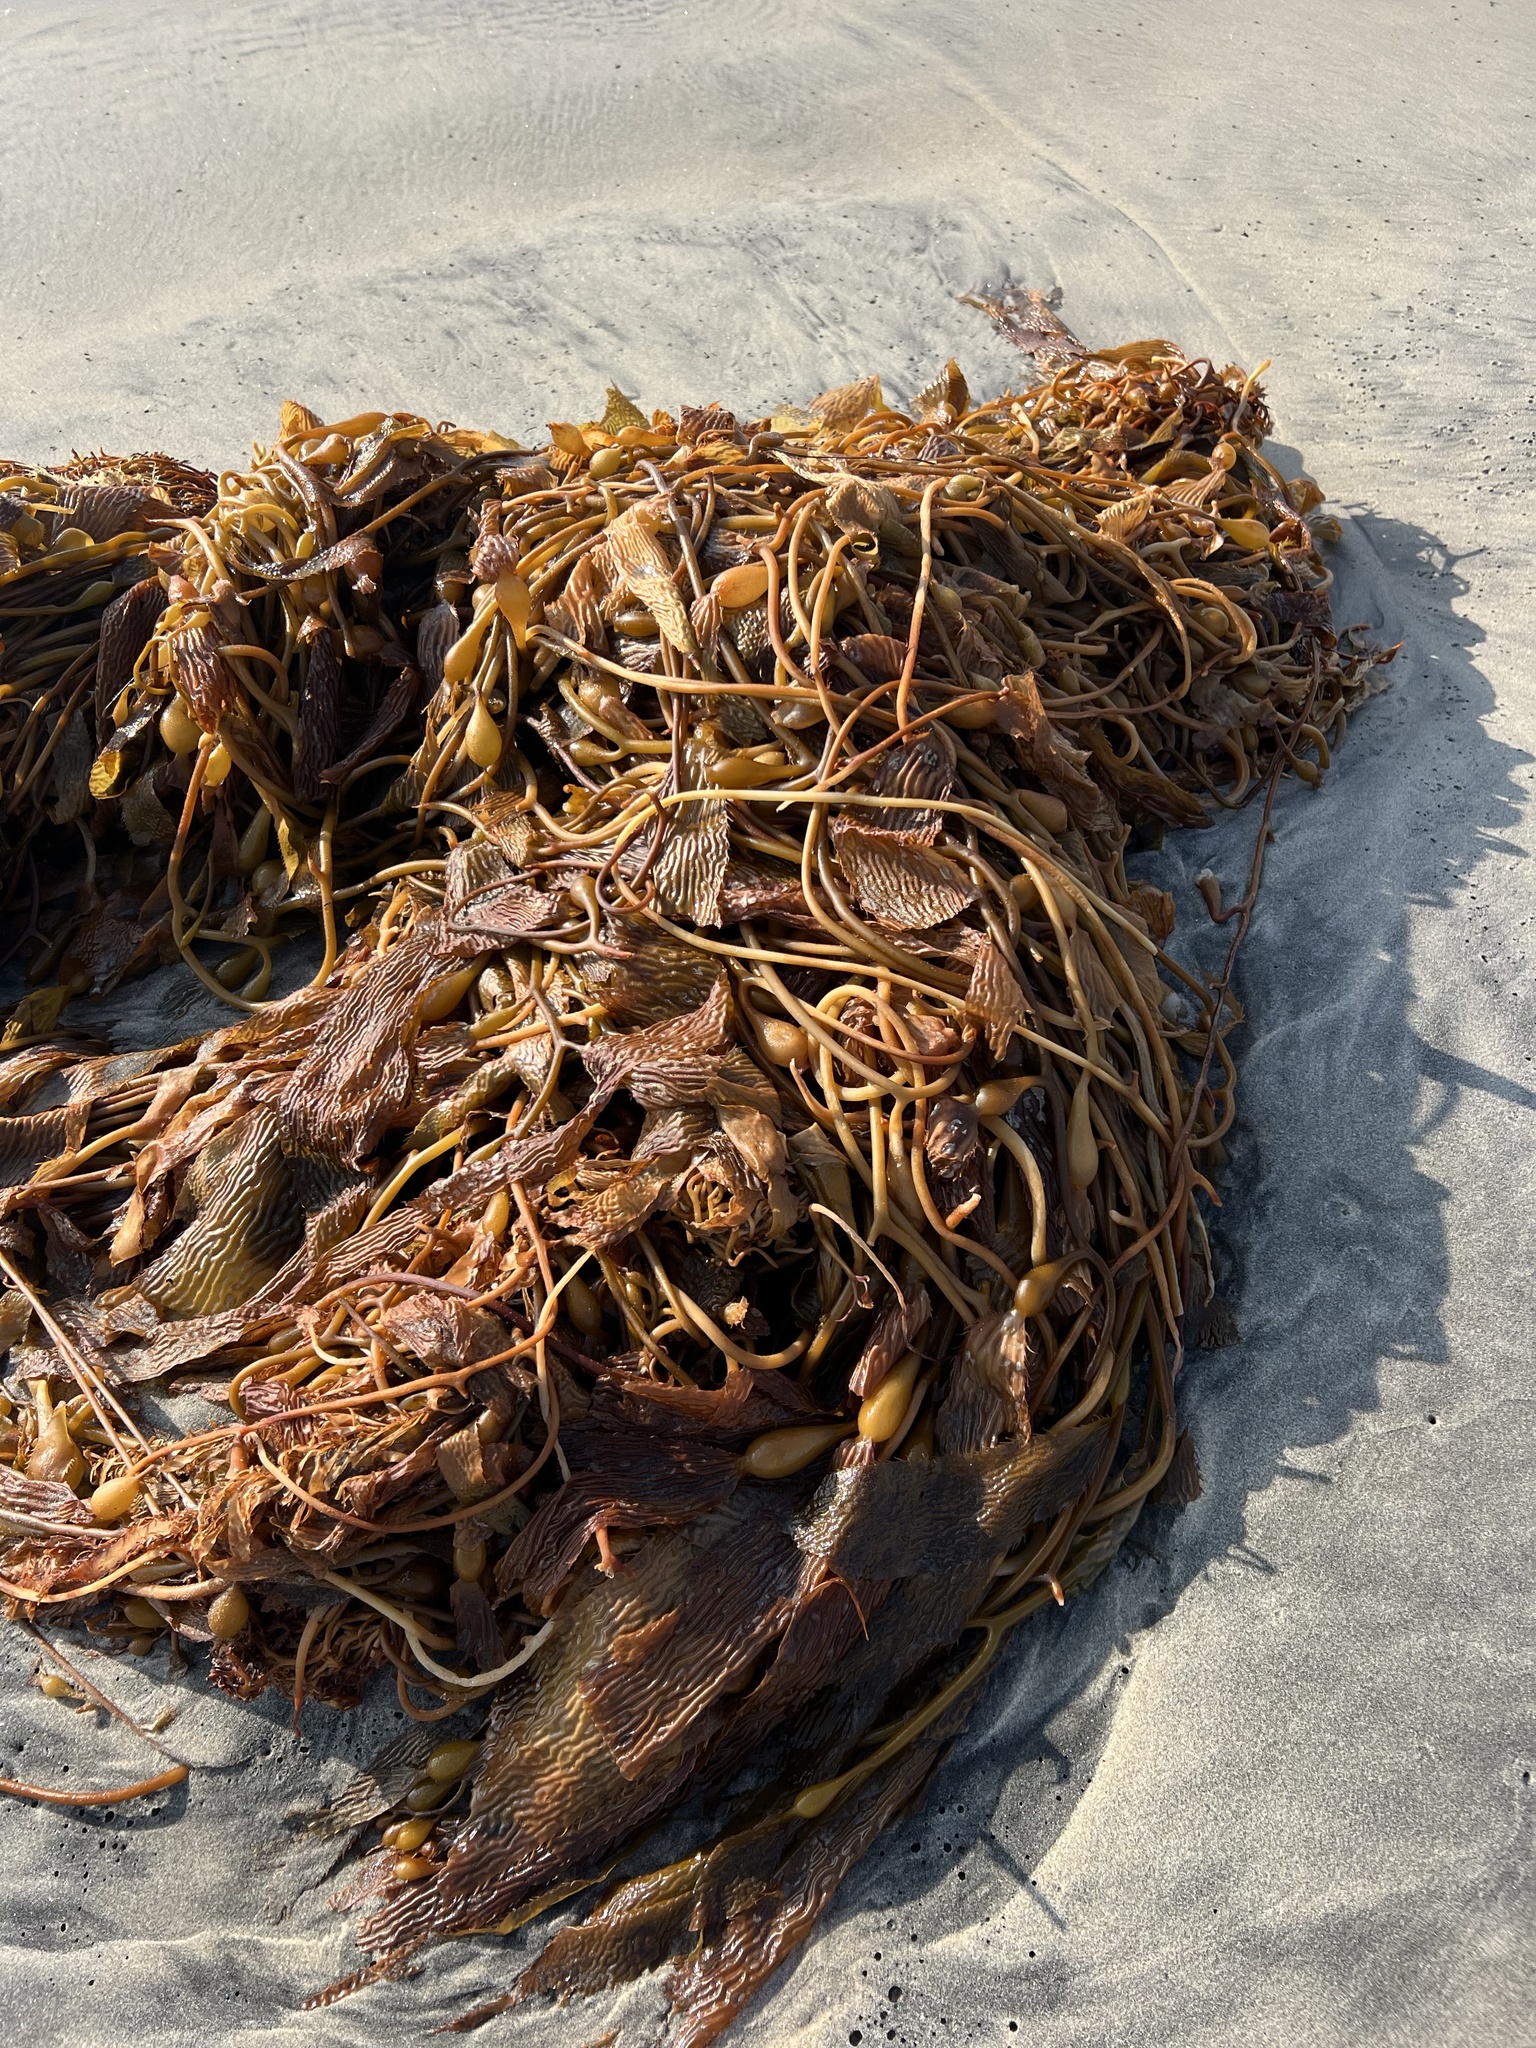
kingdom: Chromista
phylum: Ochrophyta
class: Phaeophyceae
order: Laminariales
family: Laminariaceae
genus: Macrocystis
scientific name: Macrocystis pyrifera
